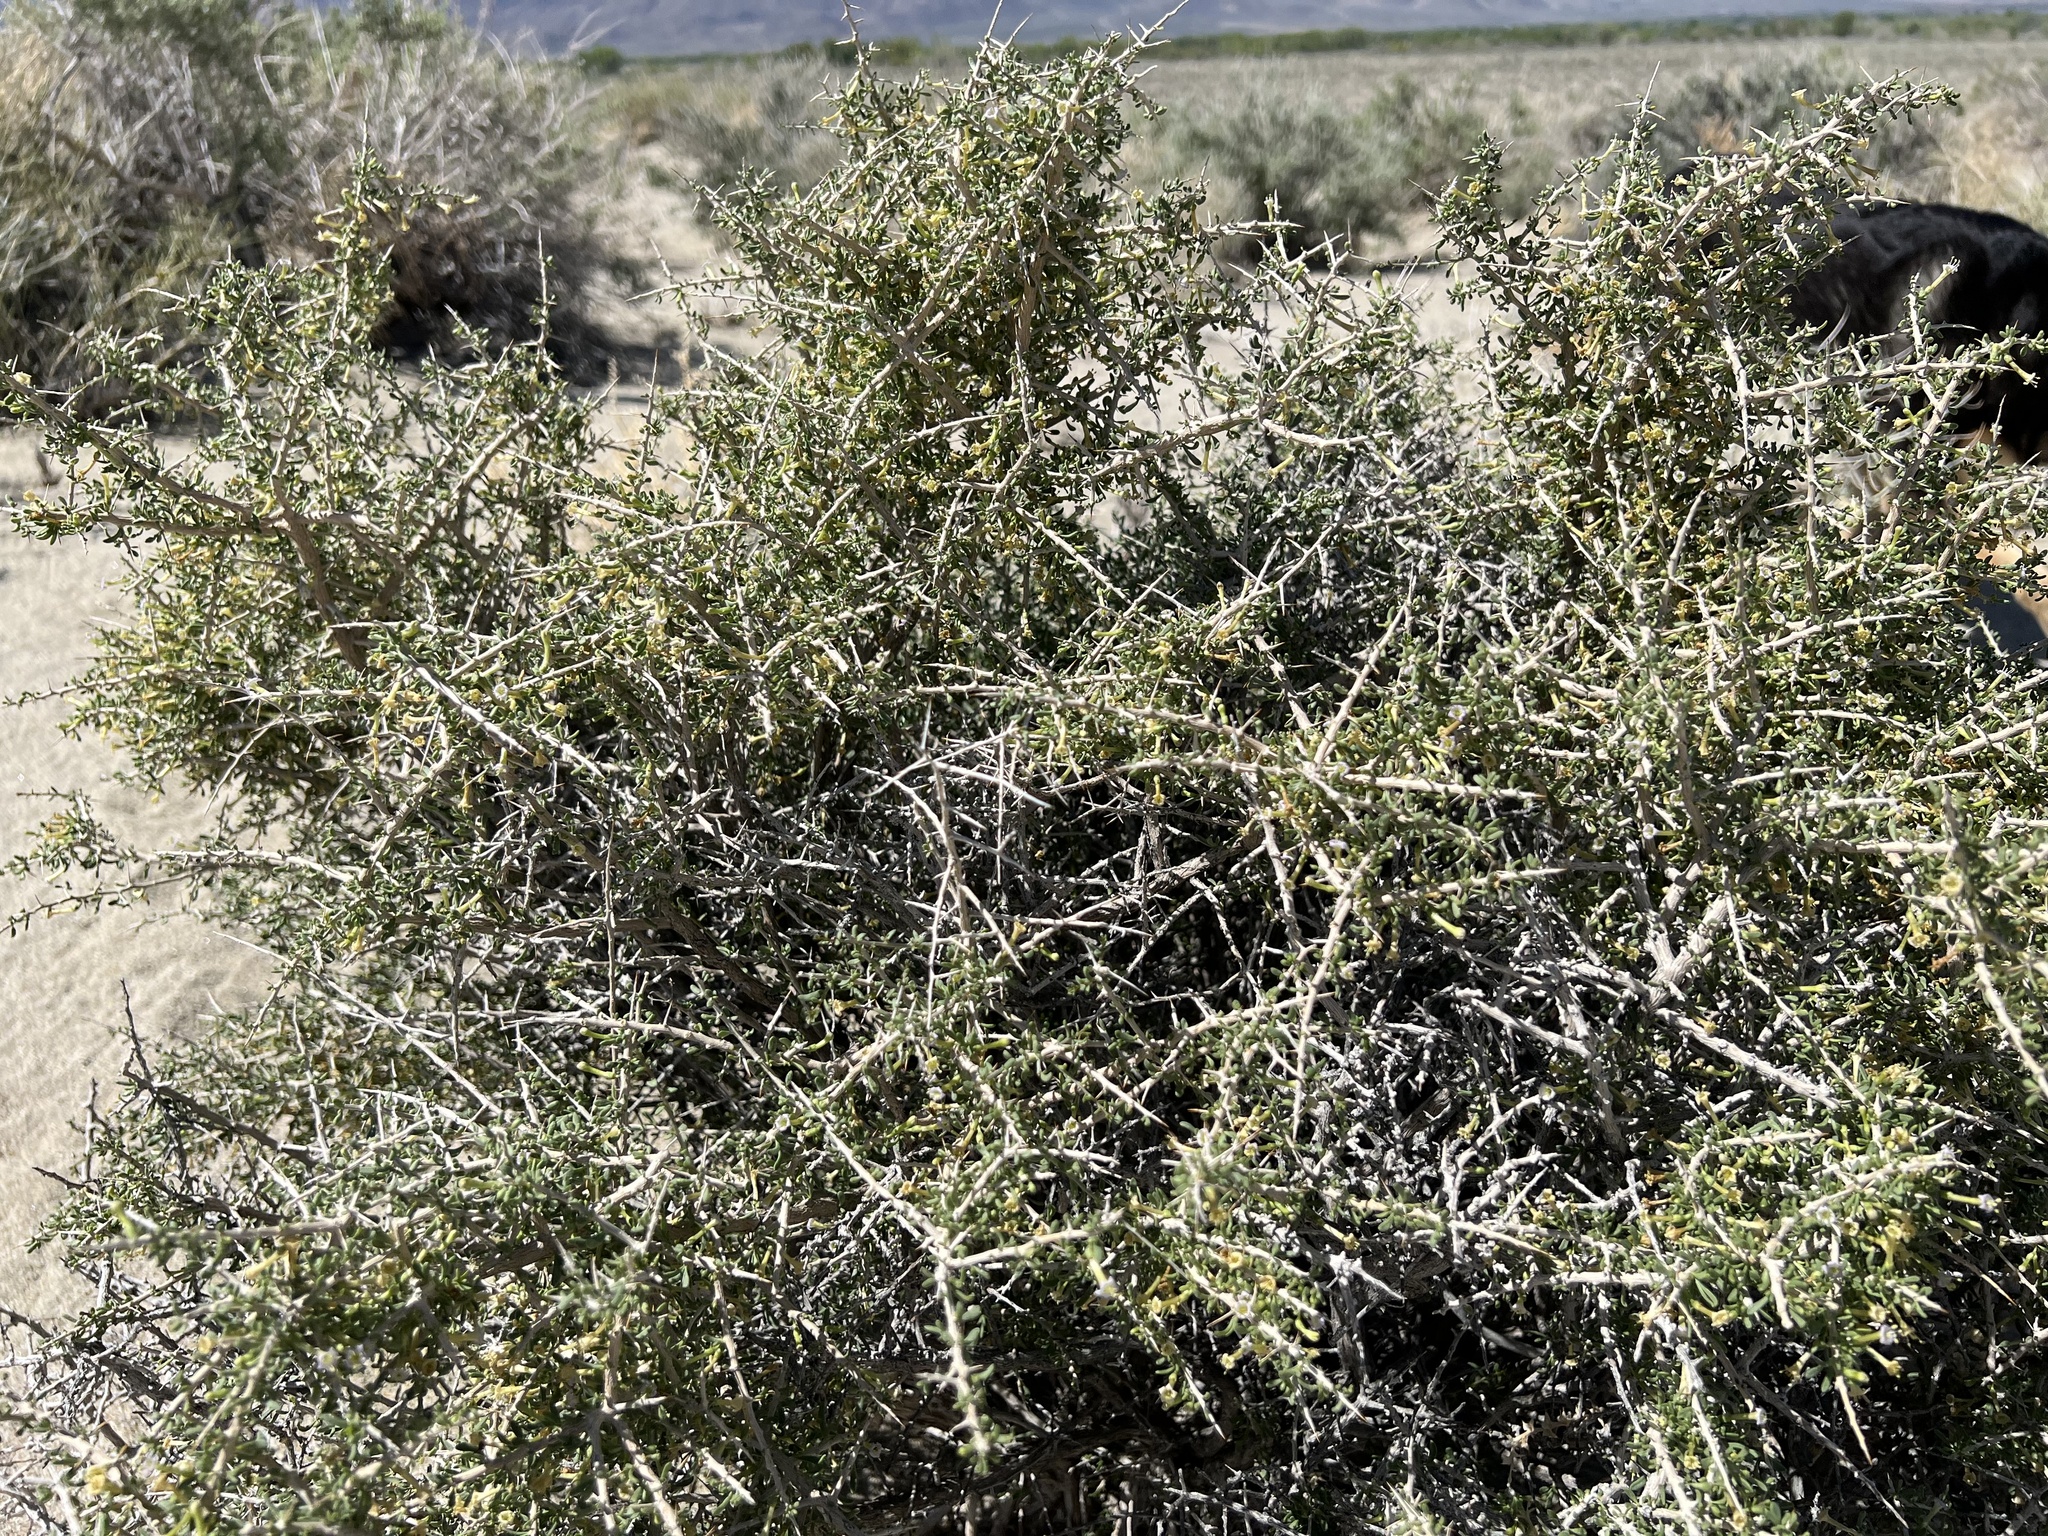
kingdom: Plantae
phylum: Tracheophyta
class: Magnoliopsida
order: Solanales
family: Solanaceae
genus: Lycium
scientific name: Lycium andersonii
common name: Water-jacket
